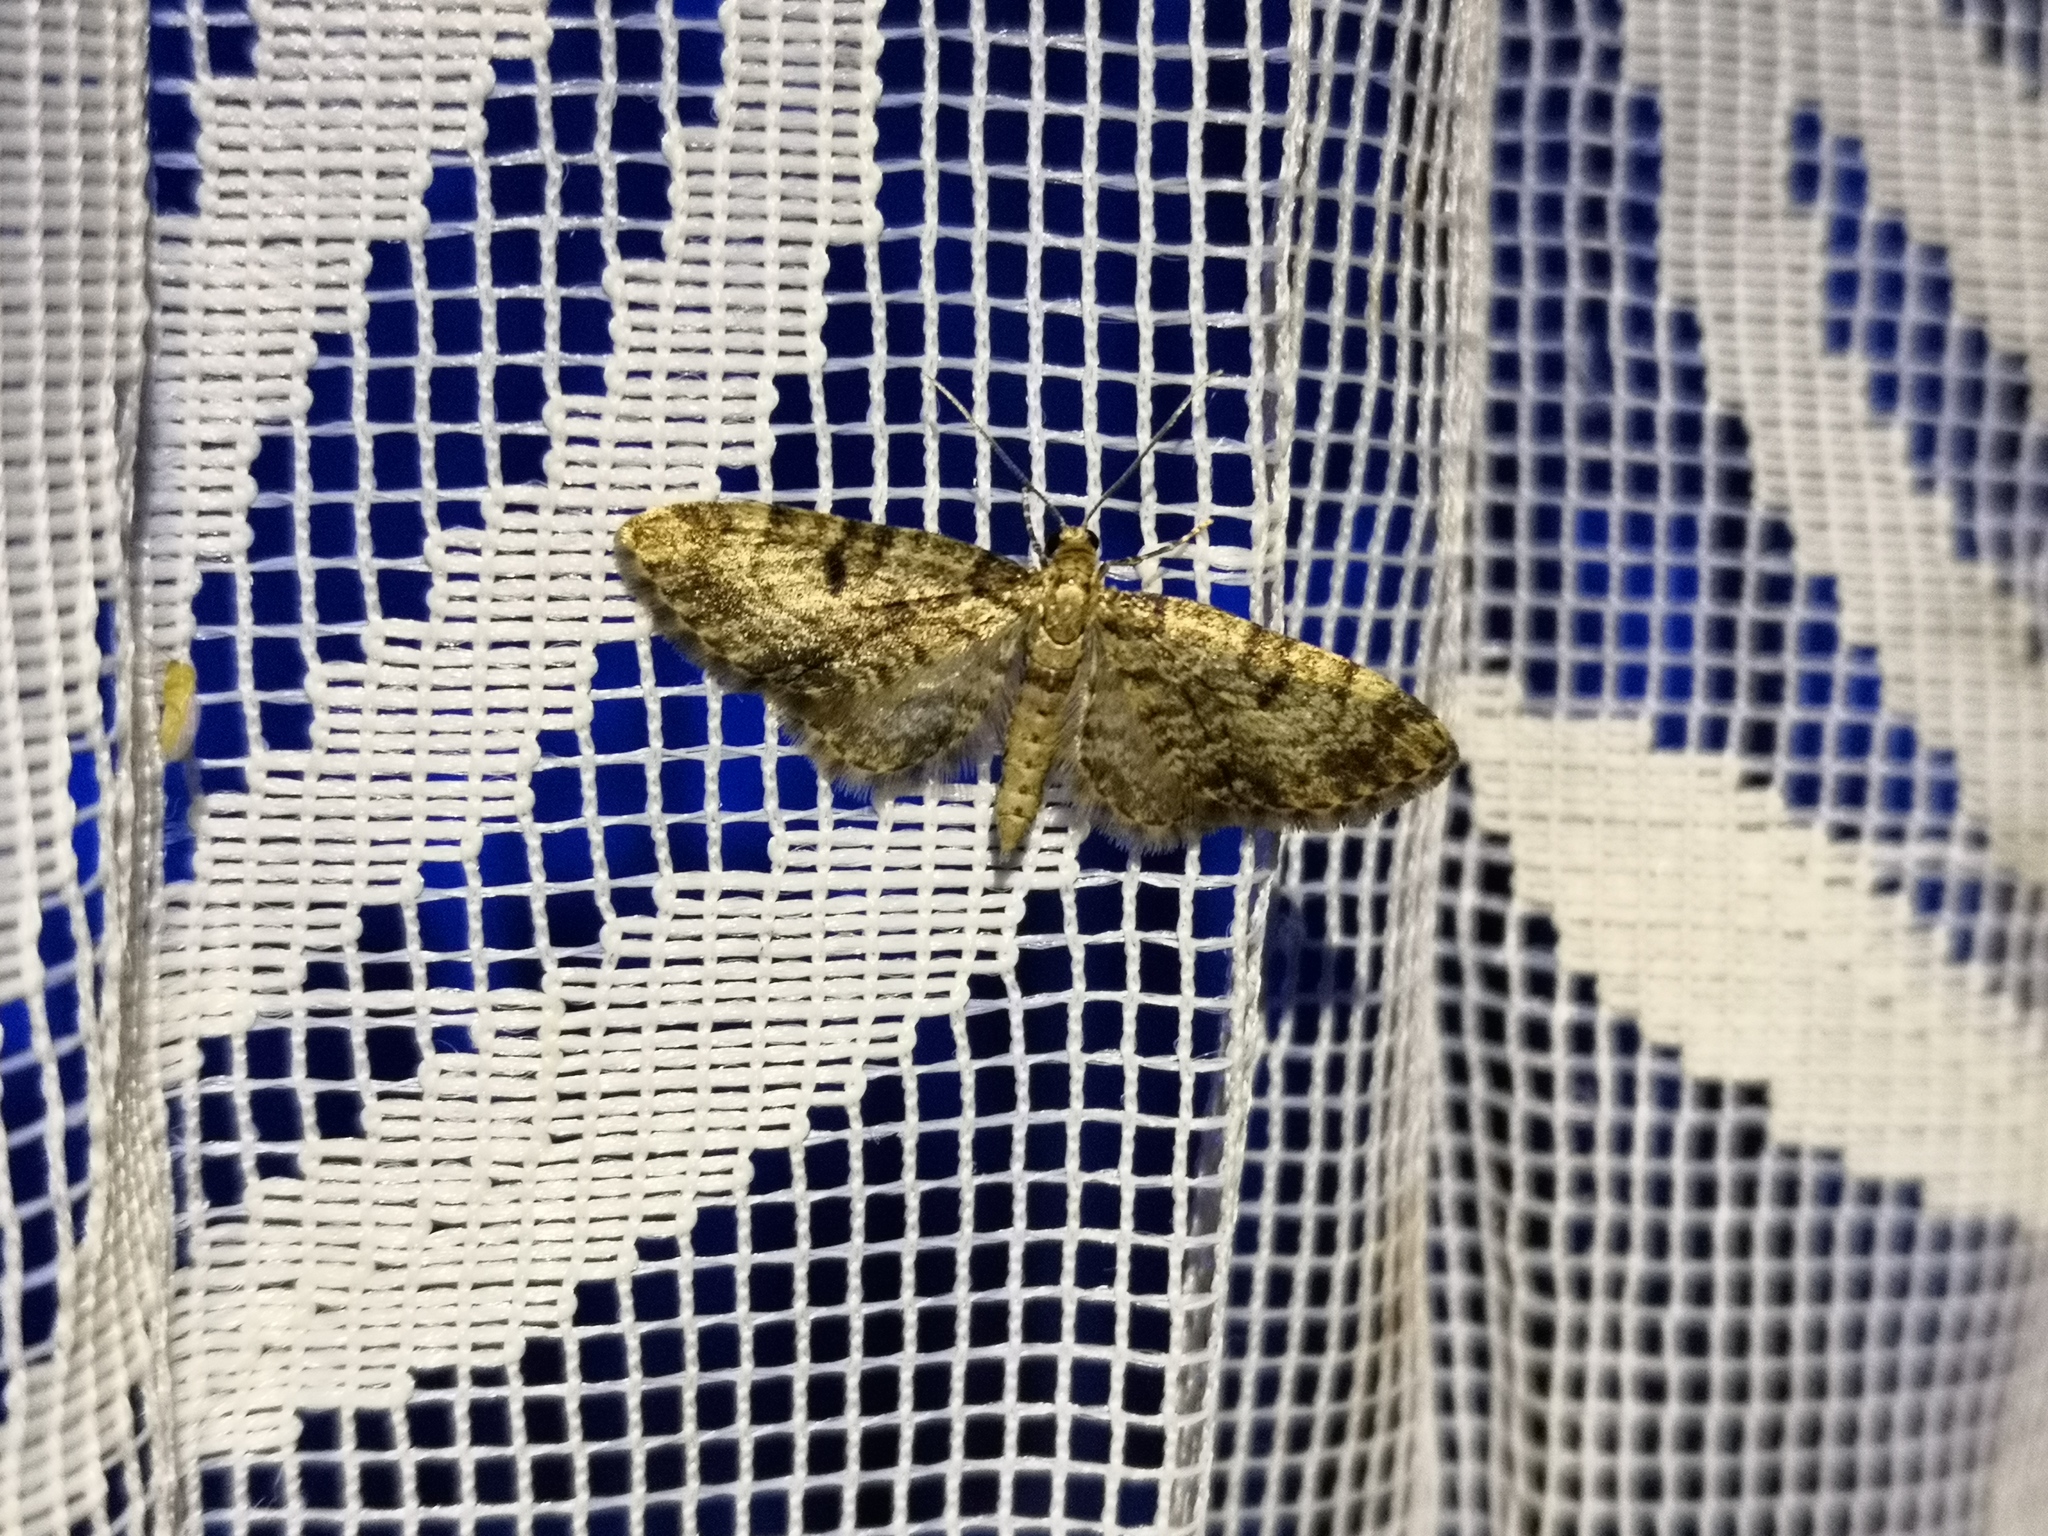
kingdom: Animalia
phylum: Arthropoda
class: Insecta
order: Lepidoptera
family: Geometridae
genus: Eupithecia
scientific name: Eupithecia tantillaria
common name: Dwarf pug
